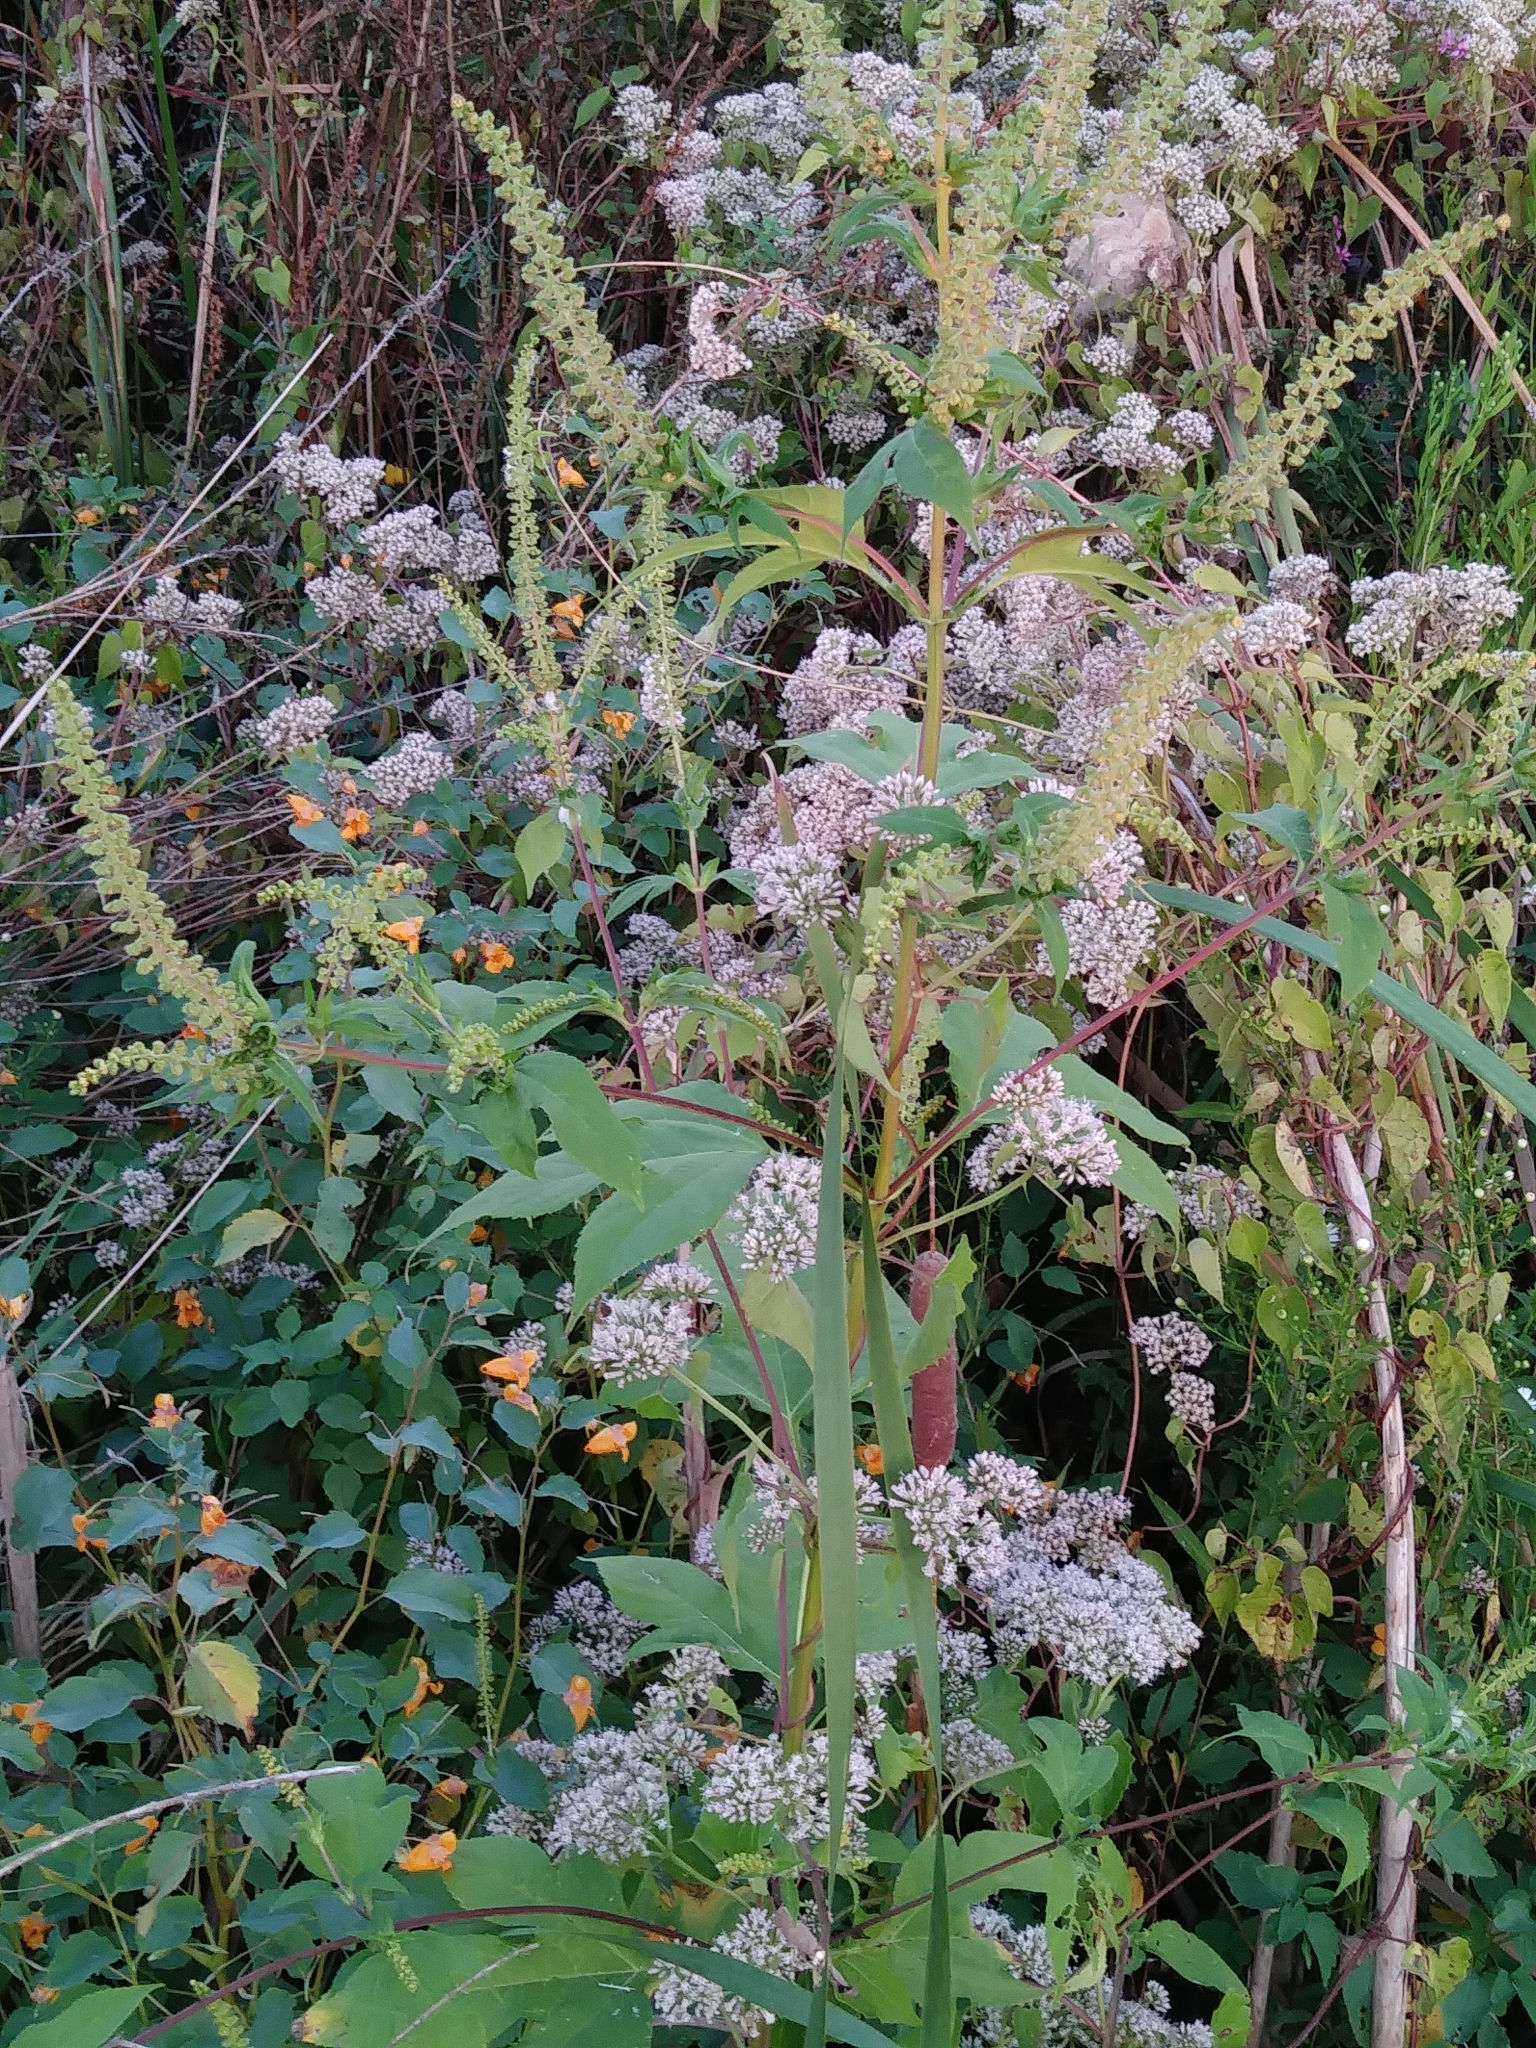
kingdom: Plantae
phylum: Tracheophyta
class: Magnoliopsida
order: Asterales
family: Asteraceae
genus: Ambrosia
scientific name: Ambrosia trifida
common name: Giant ragweed
